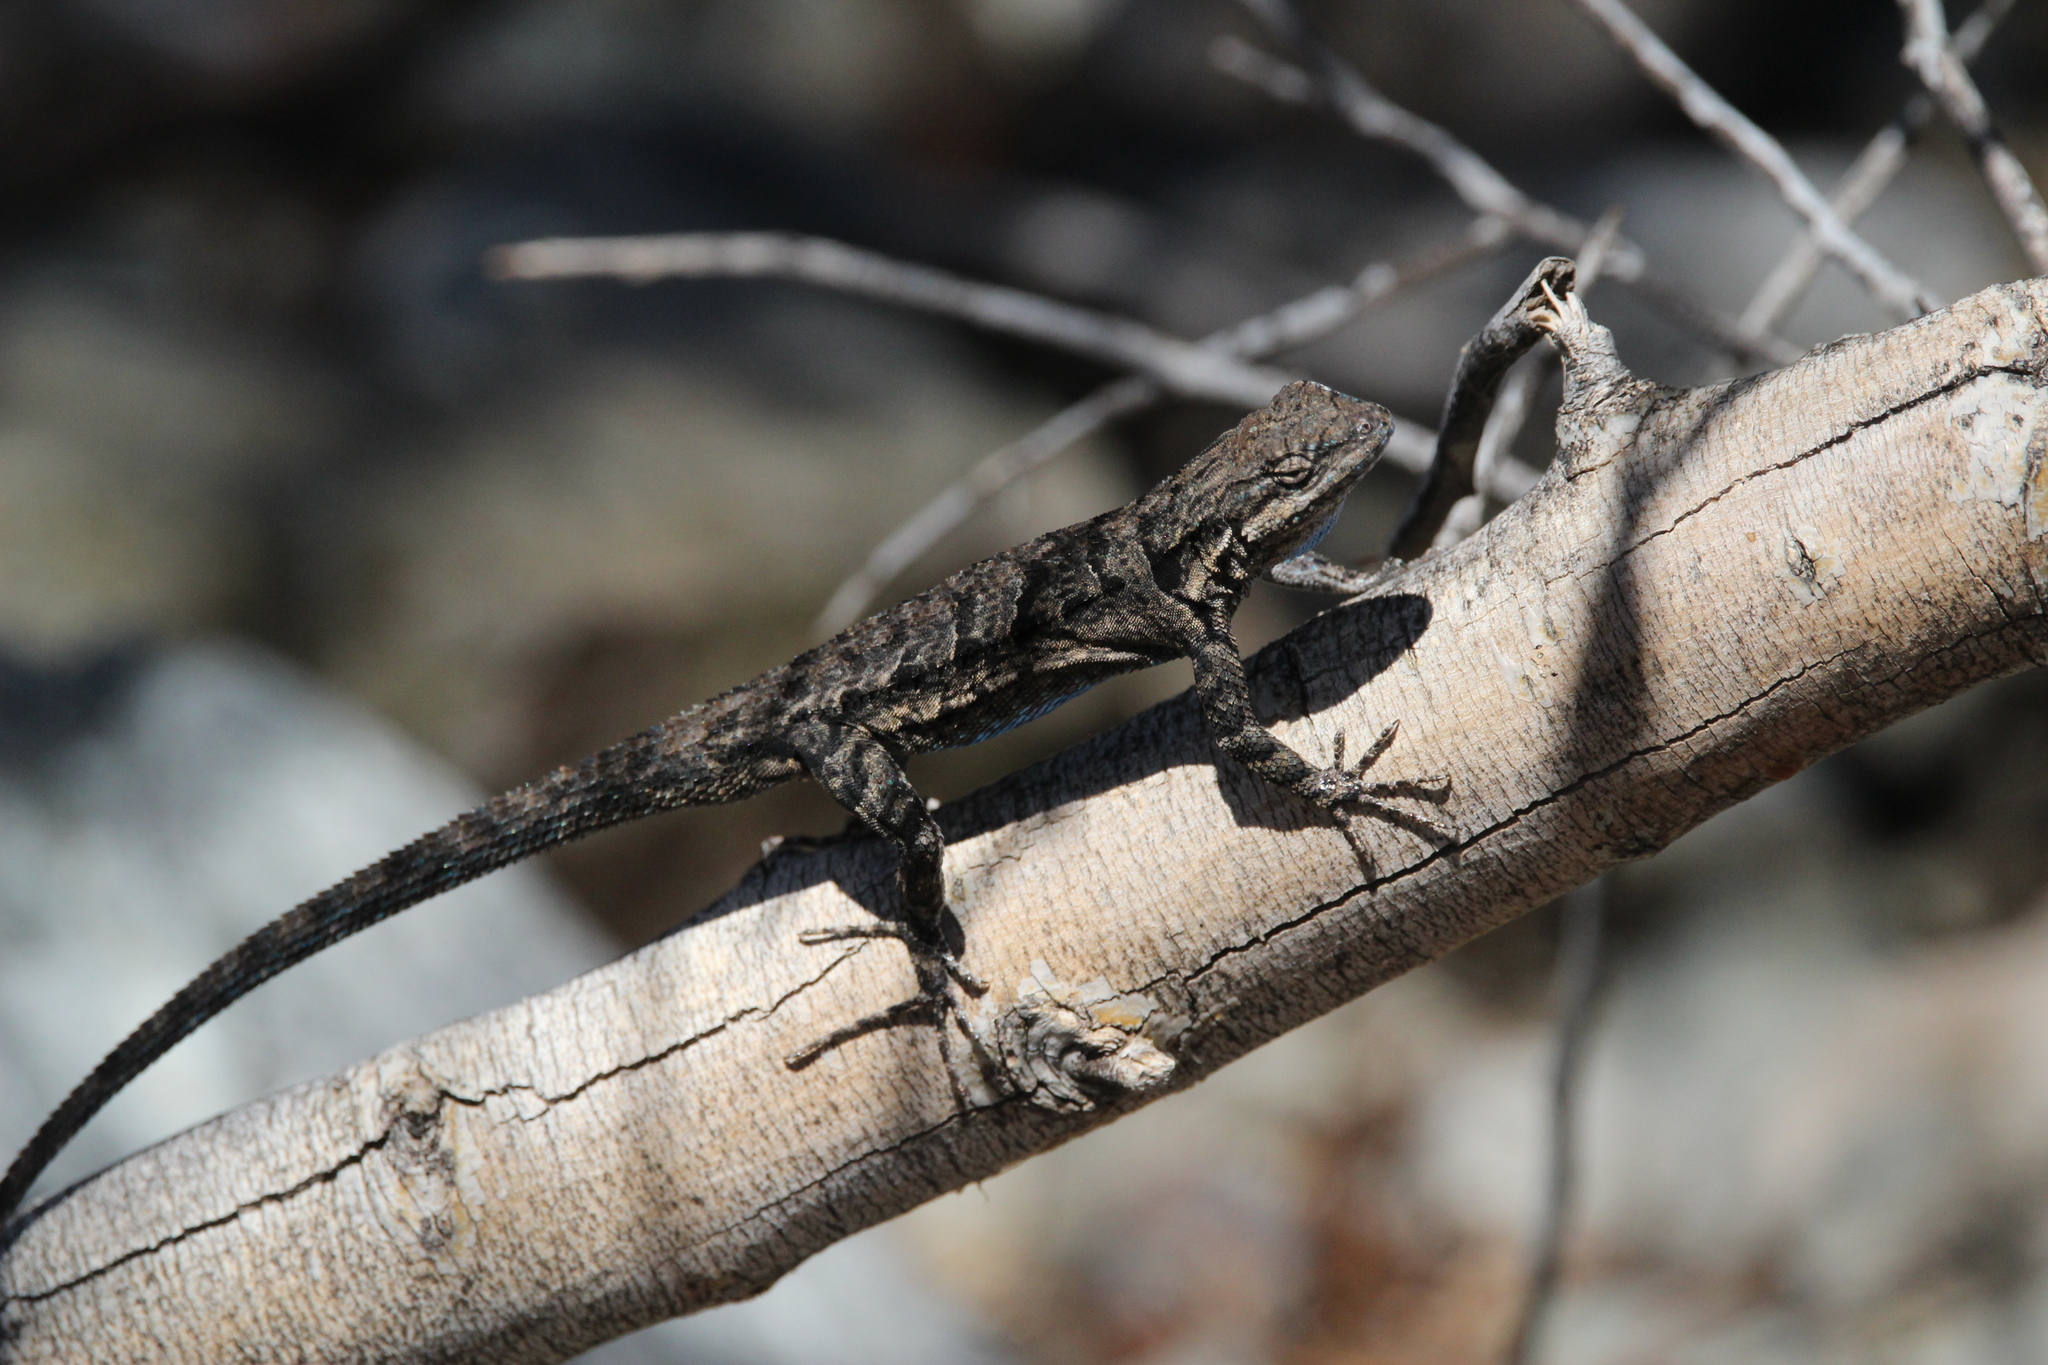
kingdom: Animalia
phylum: Chordata
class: Squamata
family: Phrynosomatidae
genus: Urosaurus
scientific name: Urosaurus ornatus
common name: Ornate tree lizard
